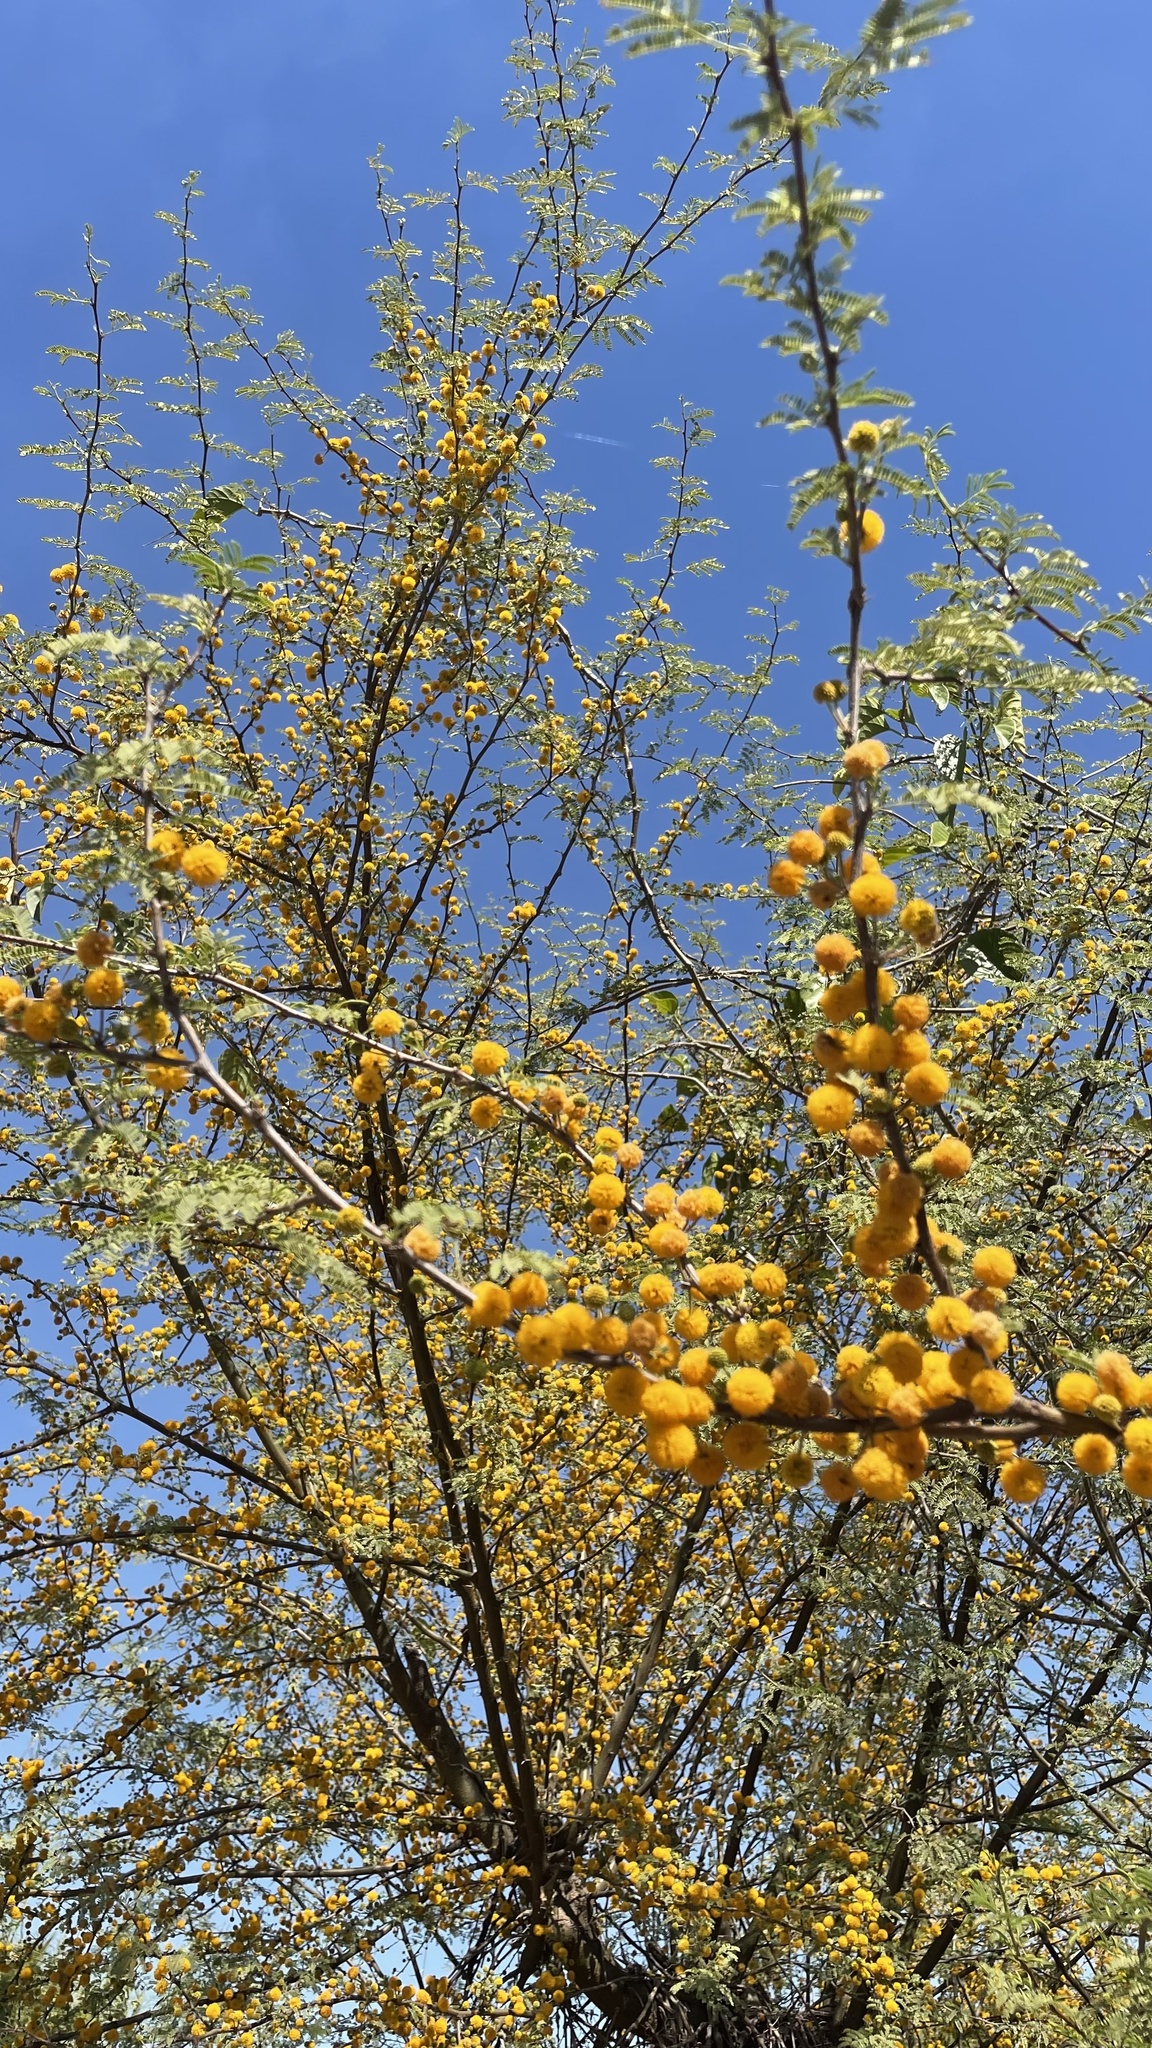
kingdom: Plantae
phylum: Tracheophyta
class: Magnoliopsida
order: Fabales
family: Fabaceae
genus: Vachellia
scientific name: Vachellia farnesiana
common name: Sweet acacia
